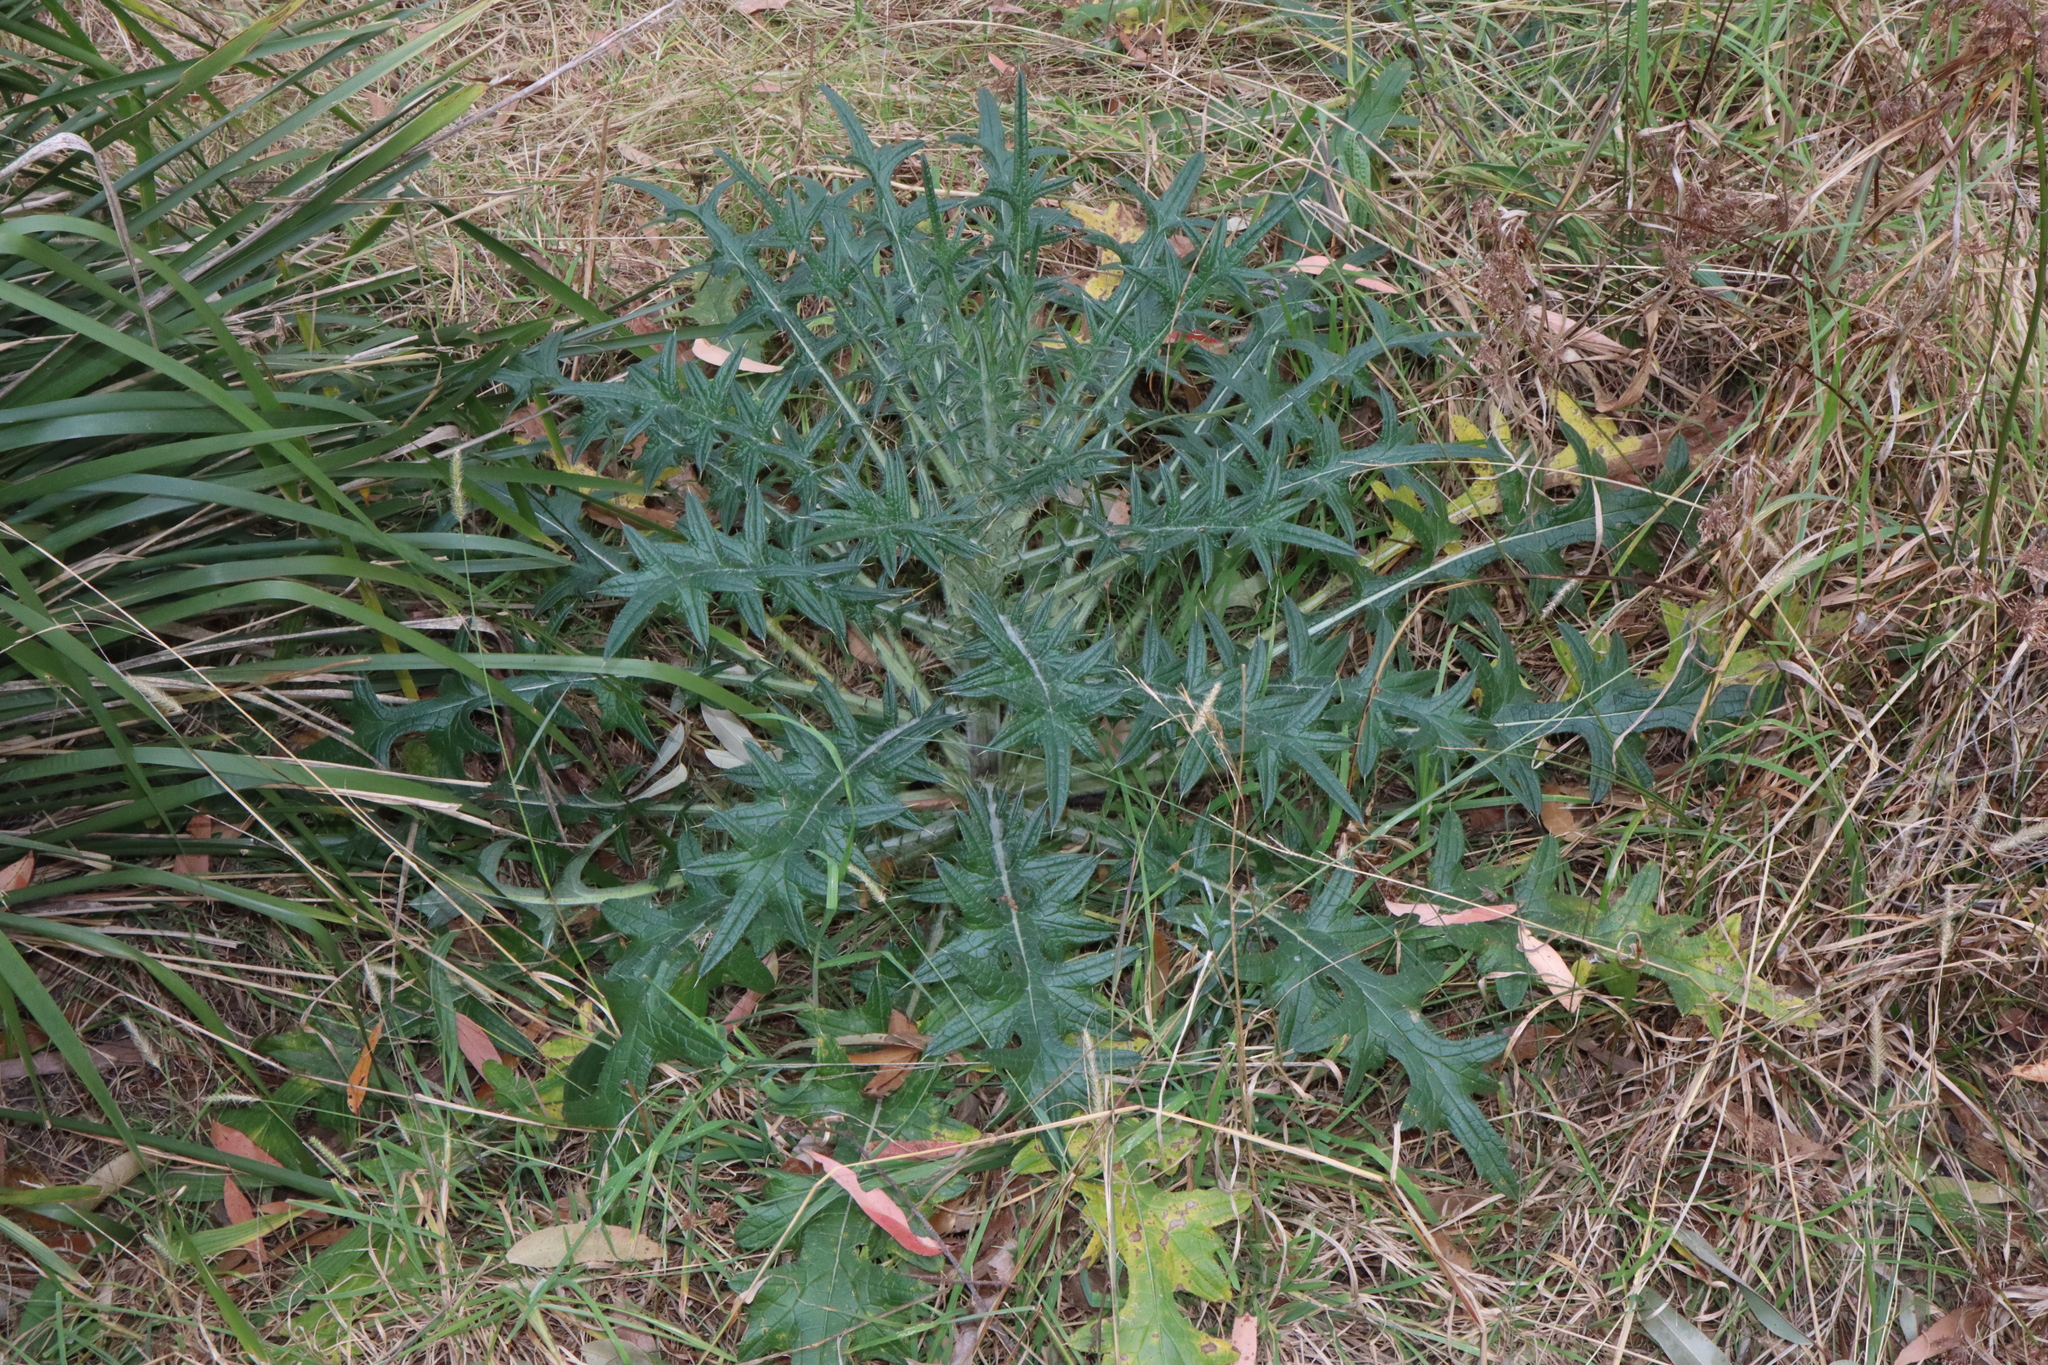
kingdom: Plantae
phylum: Tracheophyta
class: Magnoliopsida
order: Asterales
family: Asteraceae
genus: Cirsium
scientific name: Cirsium vulgare
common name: Bull thistle
